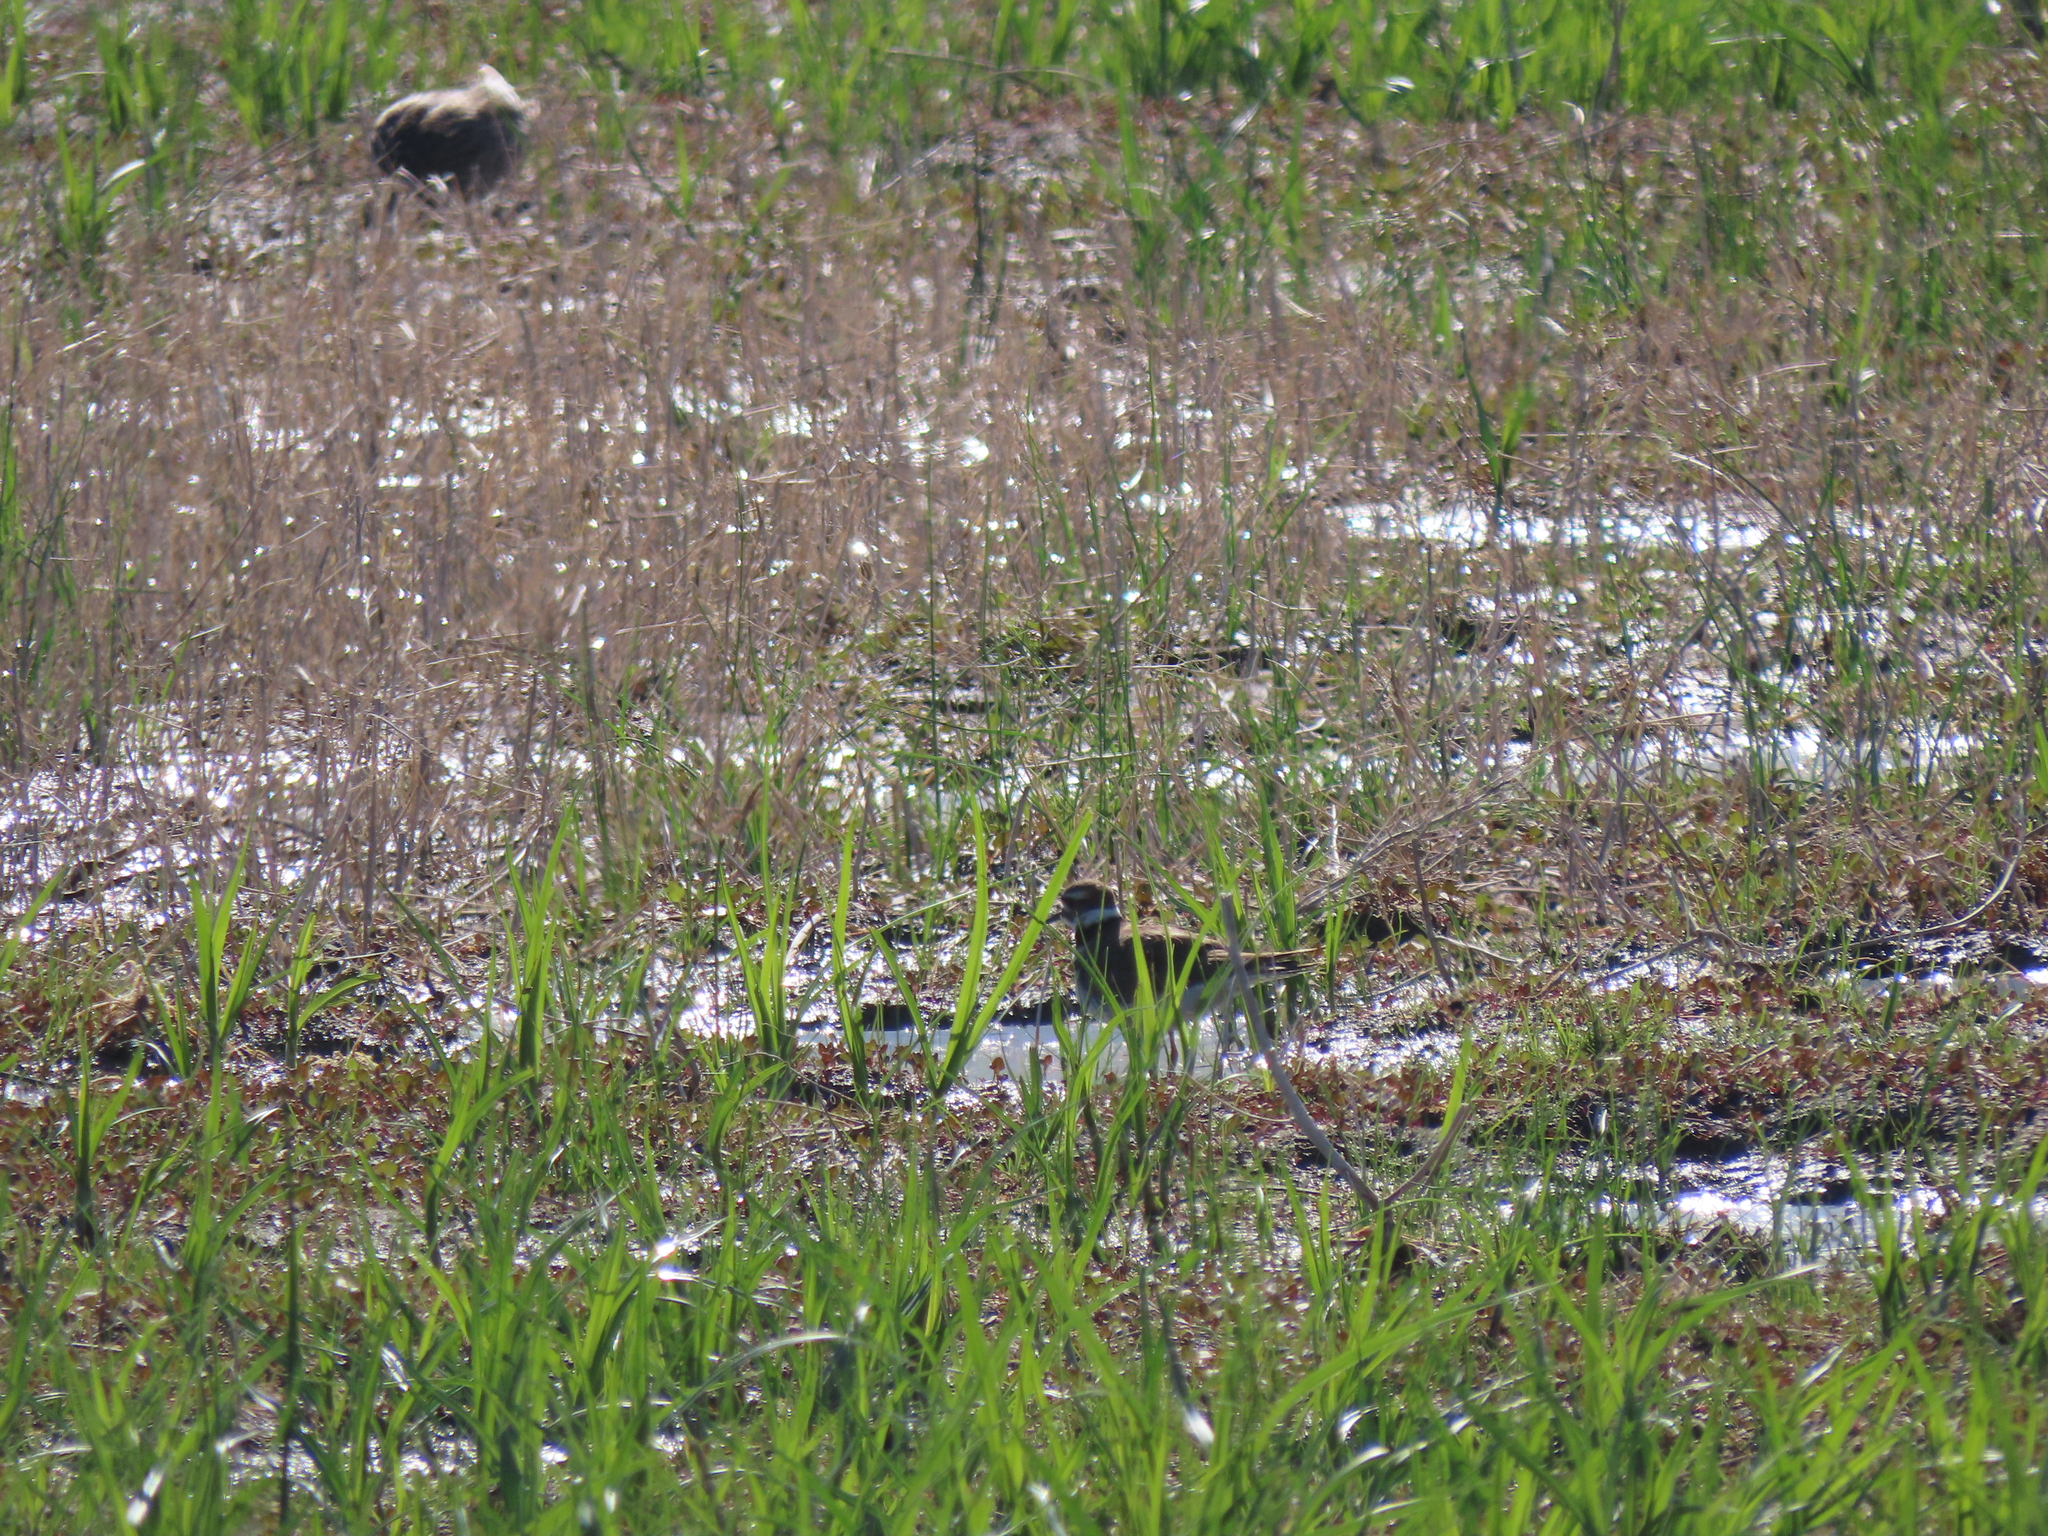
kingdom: Animalia
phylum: Chordata
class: Aves
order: Charadriiformes
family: Charadriidae
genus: Charadrius
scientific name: Charadrius vociferus
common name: Killdeer
